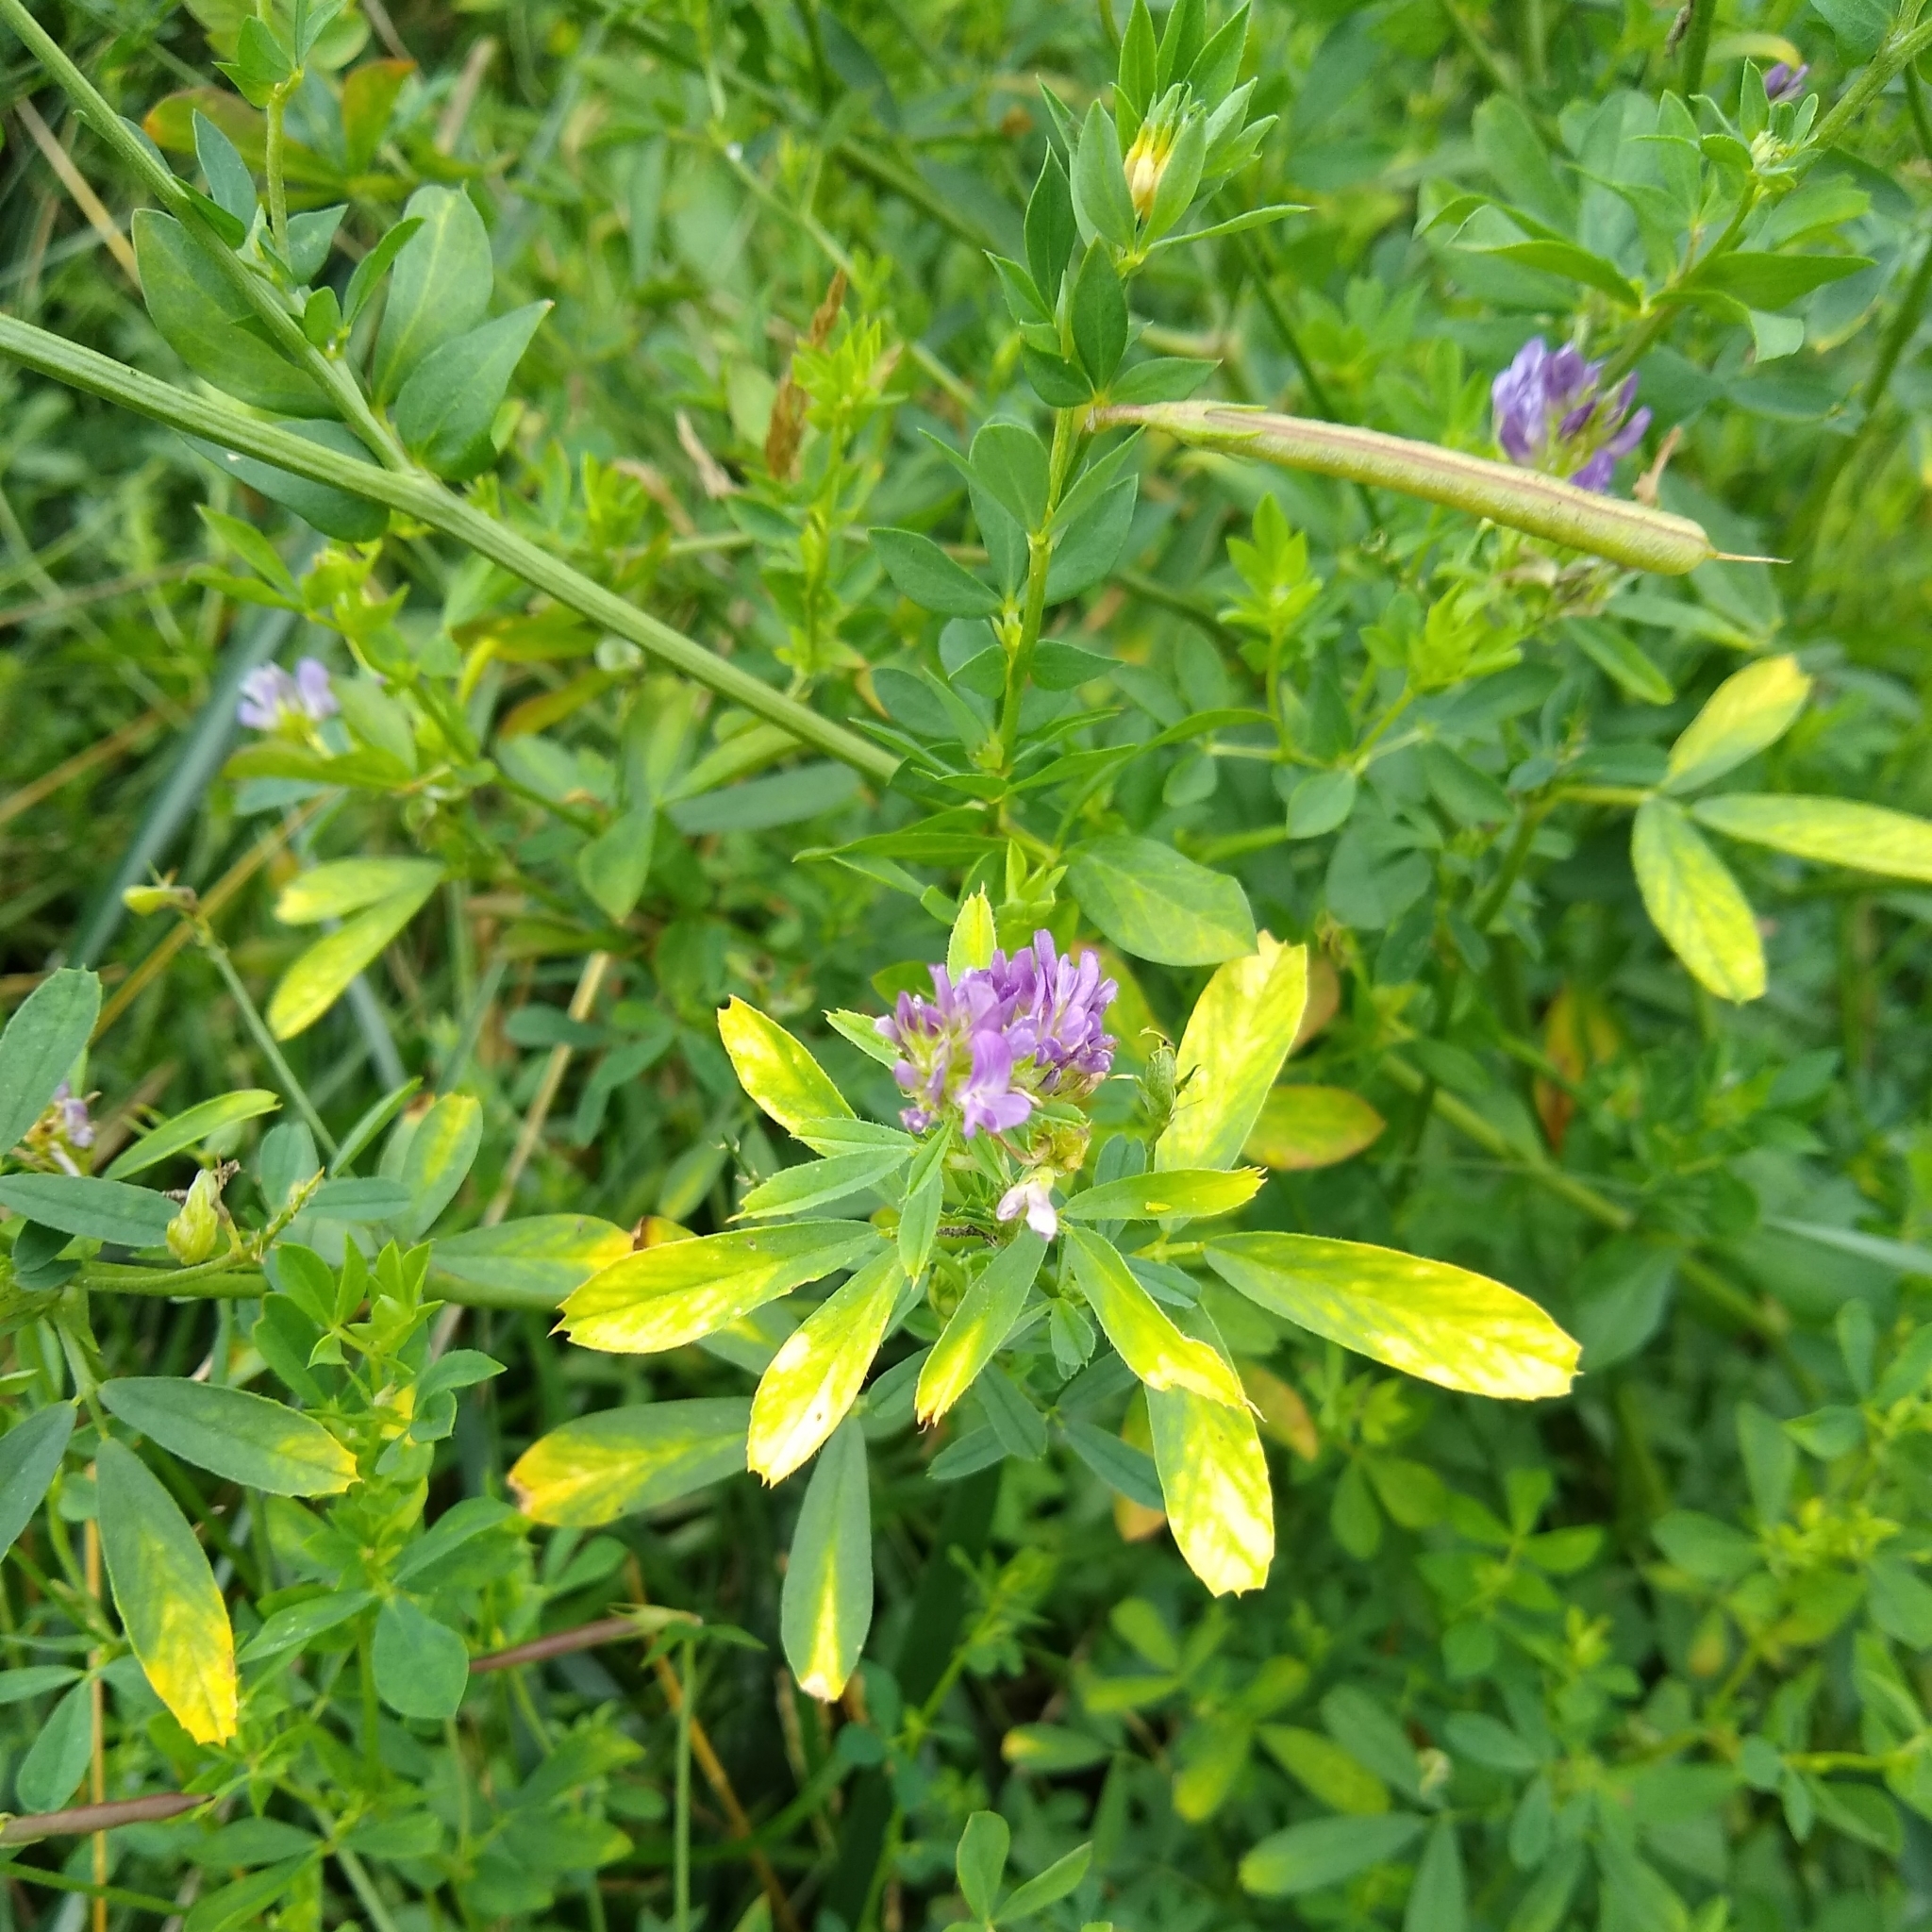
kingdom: Plantae
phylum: Tracheophyta
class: Magnoliopsida
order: Fabales
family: Fabaceae
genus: Medicago
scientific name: Medicago sativa
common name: Alfalfa
